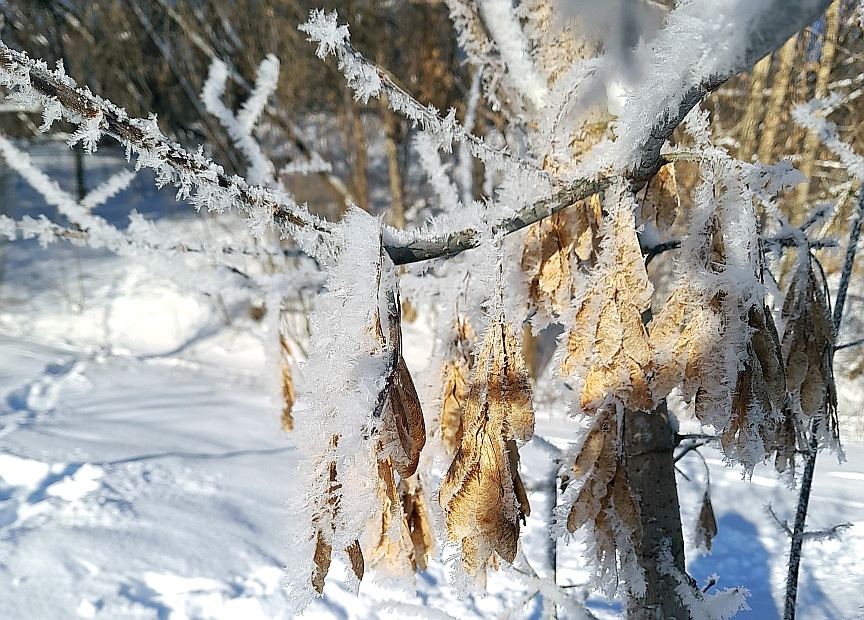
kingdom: Plantae
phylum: Tracheophyta
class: Magnoliopsida
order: Sapindales
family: Sapindaceae
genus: Acer
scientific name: Acer negundo
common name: Ashleaf maple
